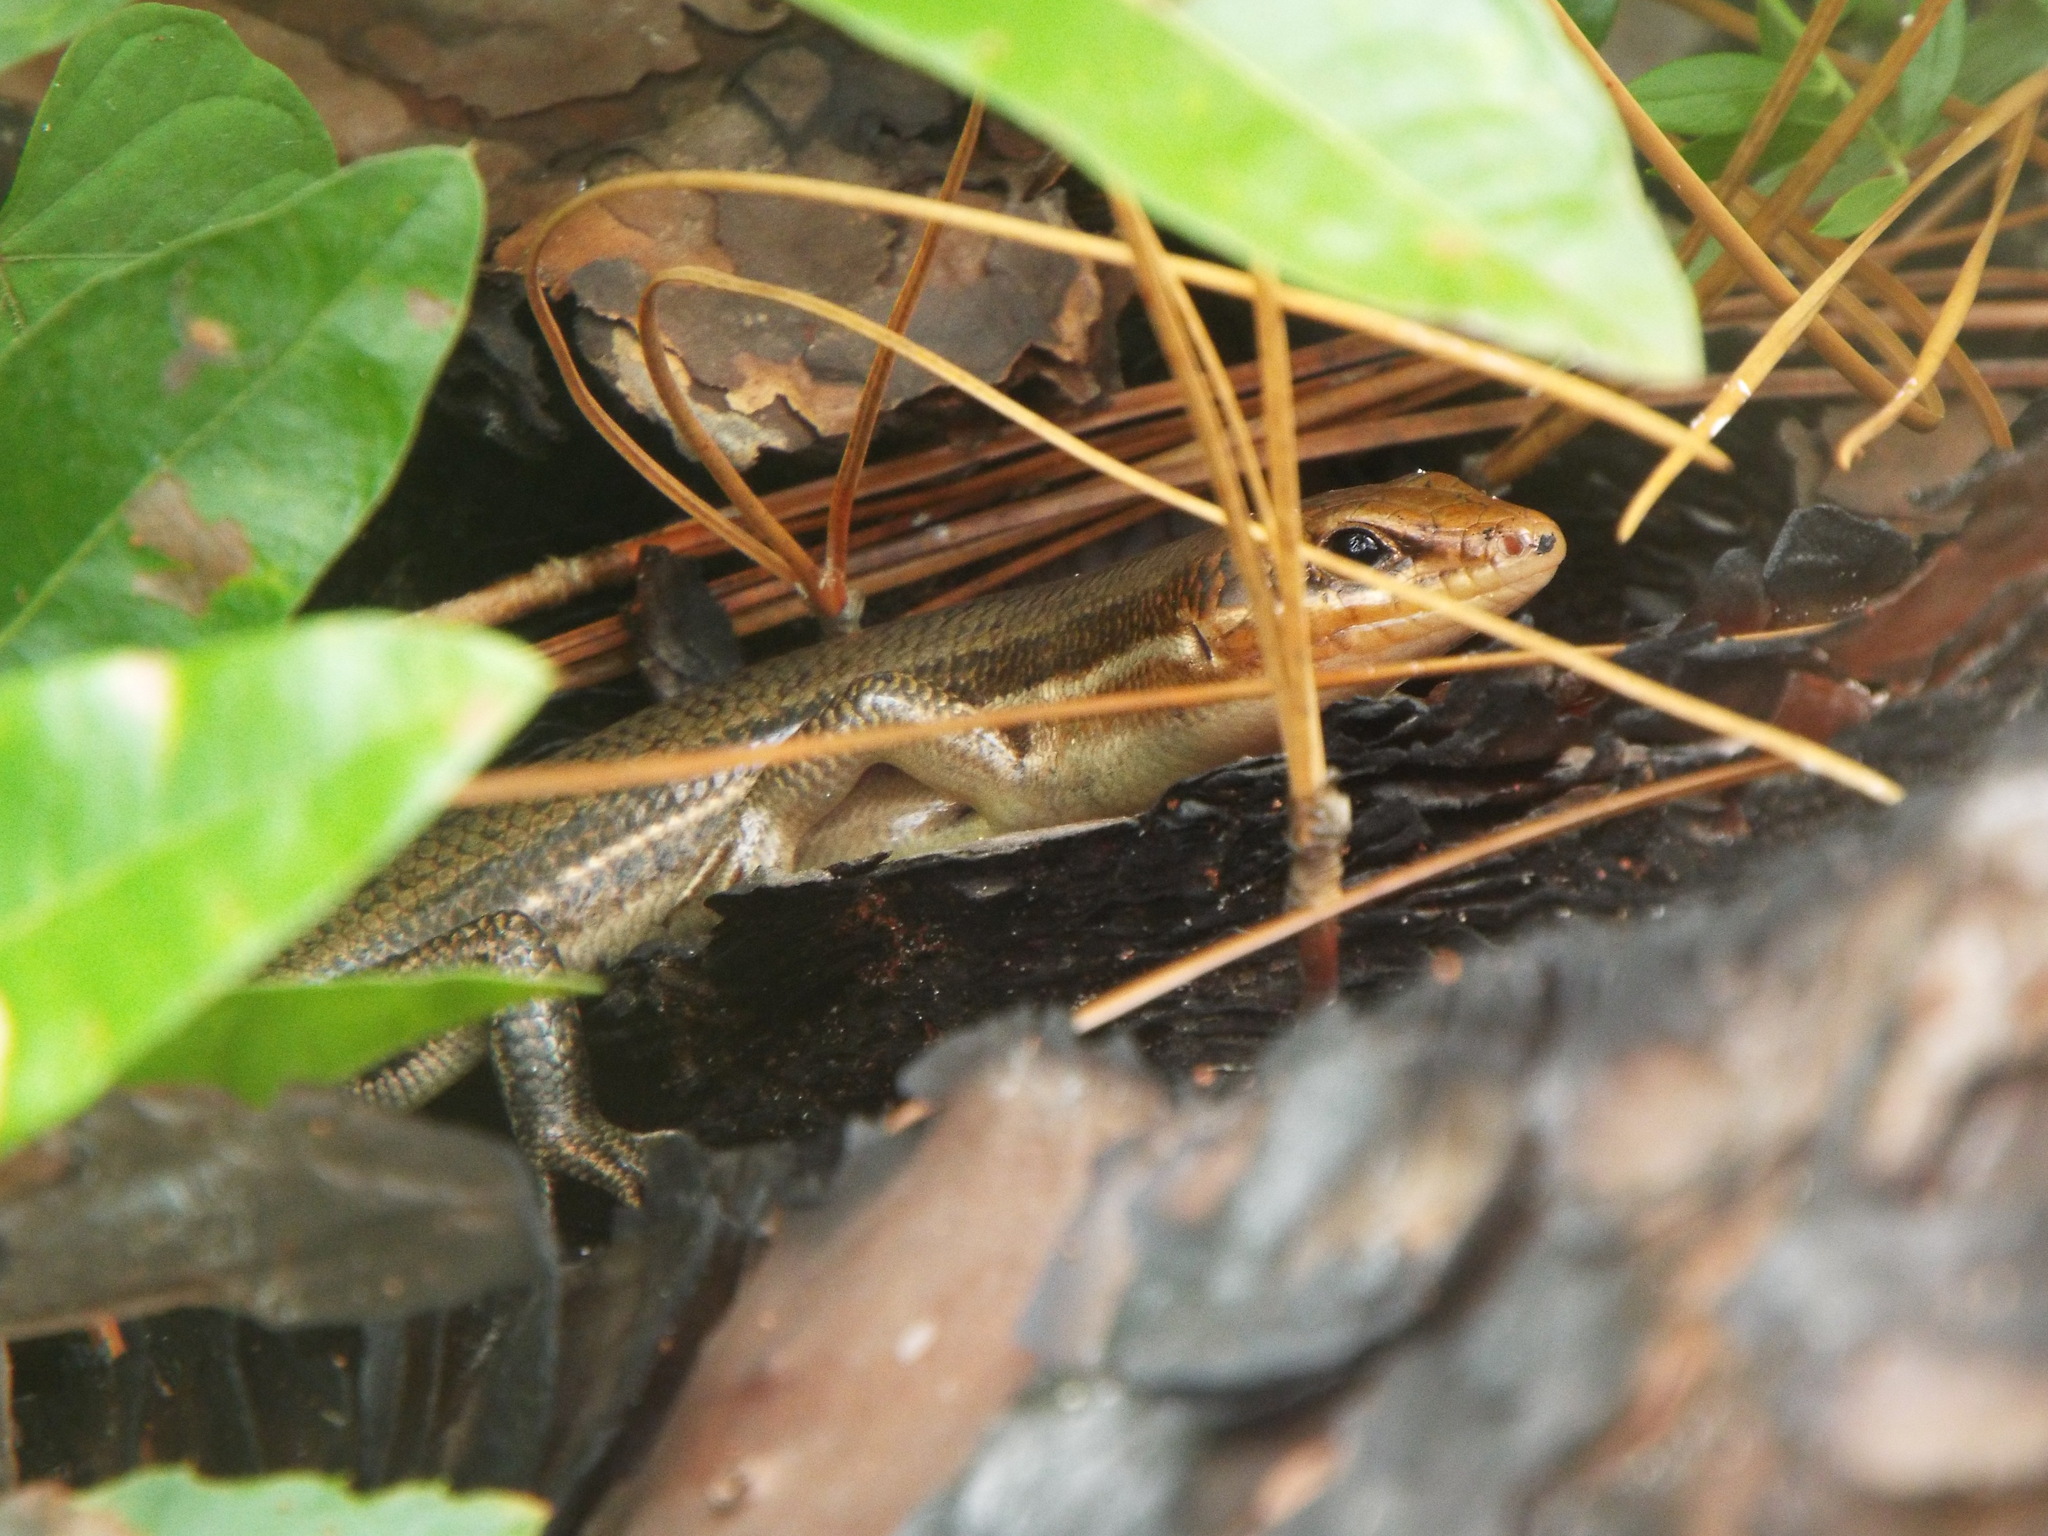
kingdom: Animalia
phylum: Chordata
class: Squamata
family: Scincidae
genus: Plestiodon
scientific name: Plestiodon laticeps
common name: Broadhead skink
